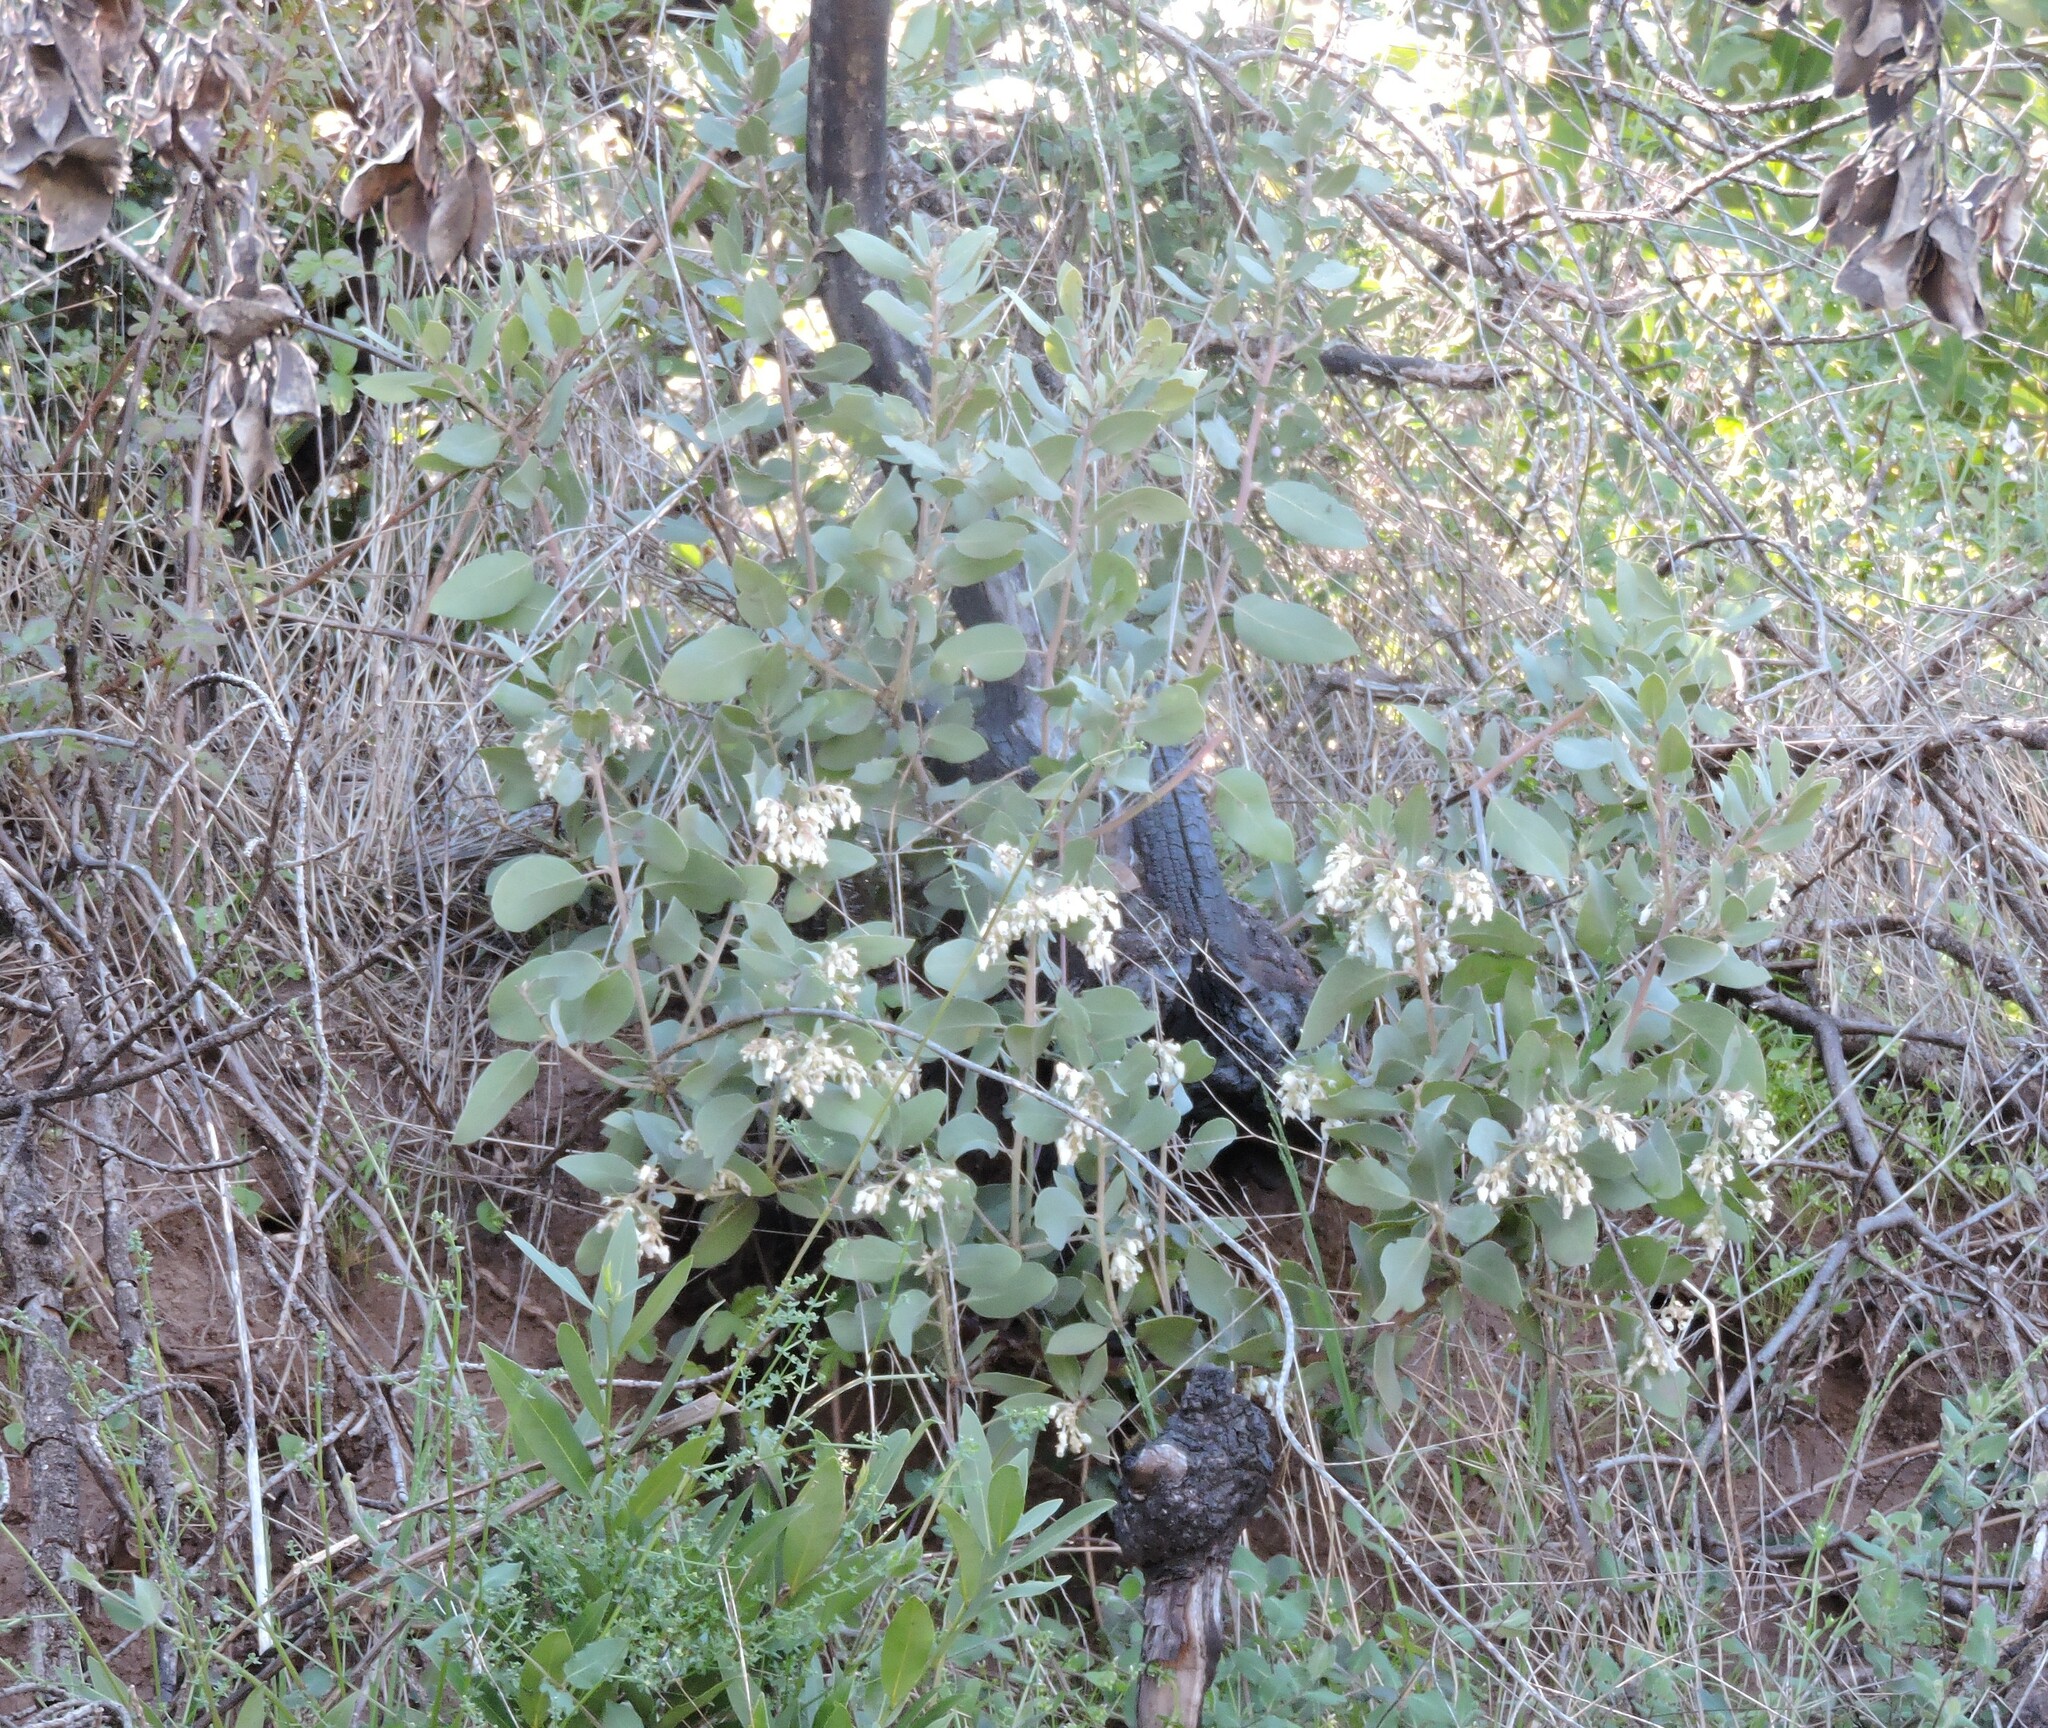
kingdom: Plantae
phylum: Tracheophyta
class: Magnoliopsida
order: Ericales
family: Ericaceae
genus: Arctostaphylos
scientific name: Arctostaphylos glandulosa
